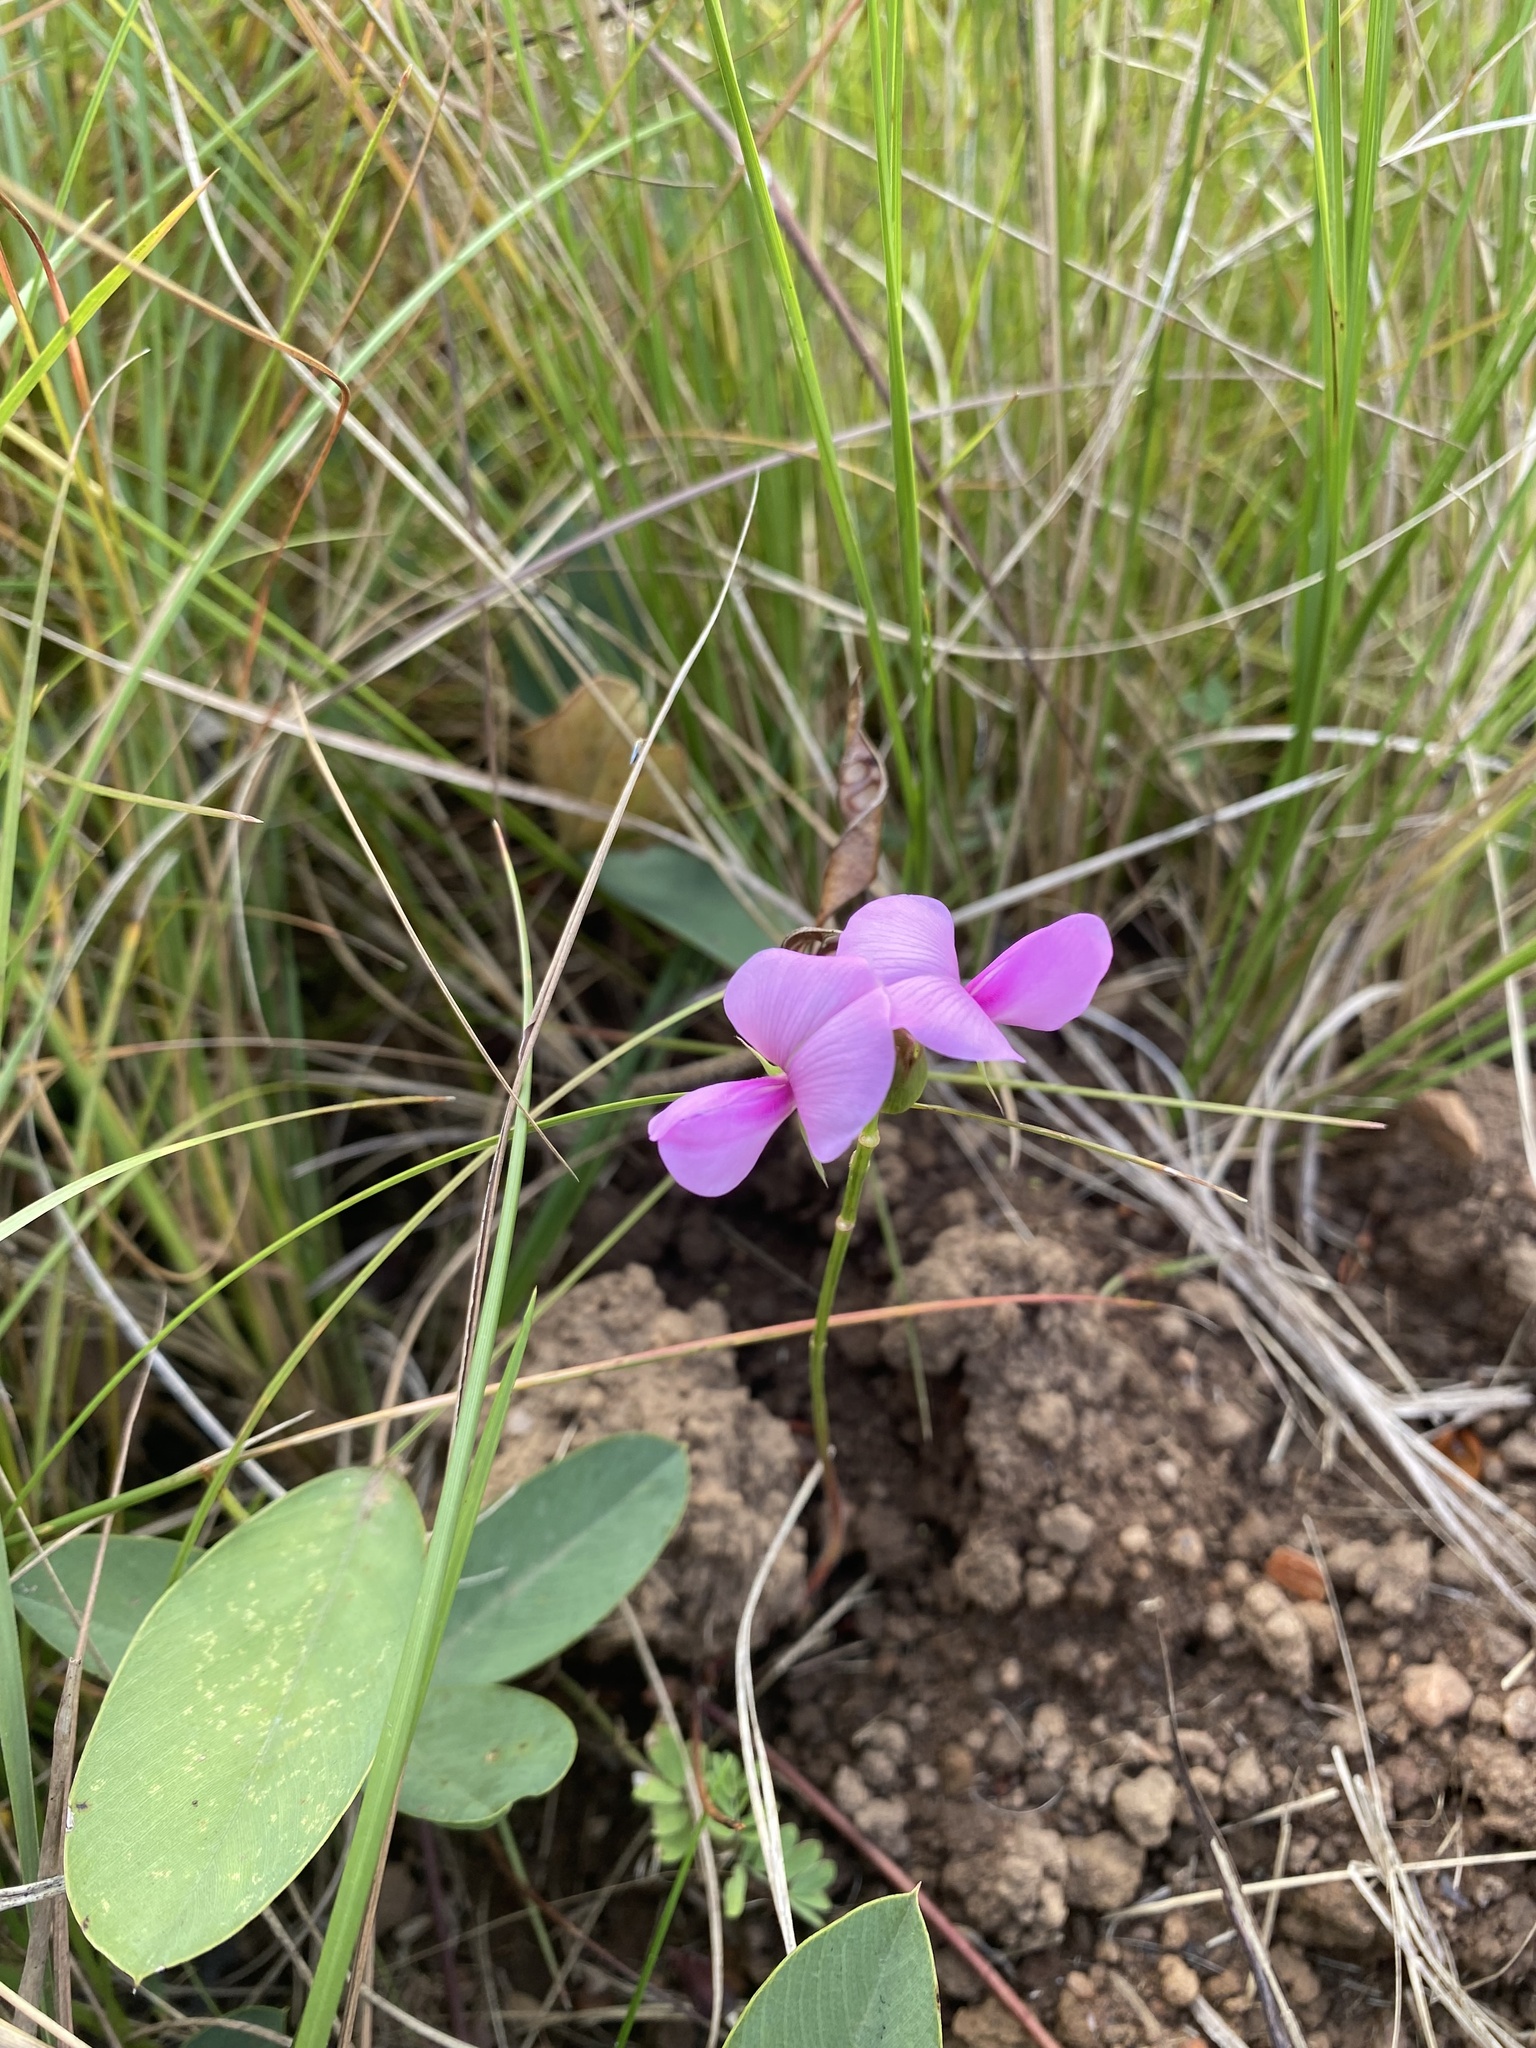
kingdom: Plantae
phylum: Tracheophyta
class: Magnoliopsida
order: Fabales
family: Fabaceae
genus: Vigna
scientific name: Vigna vexillata
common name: Zombi pea
